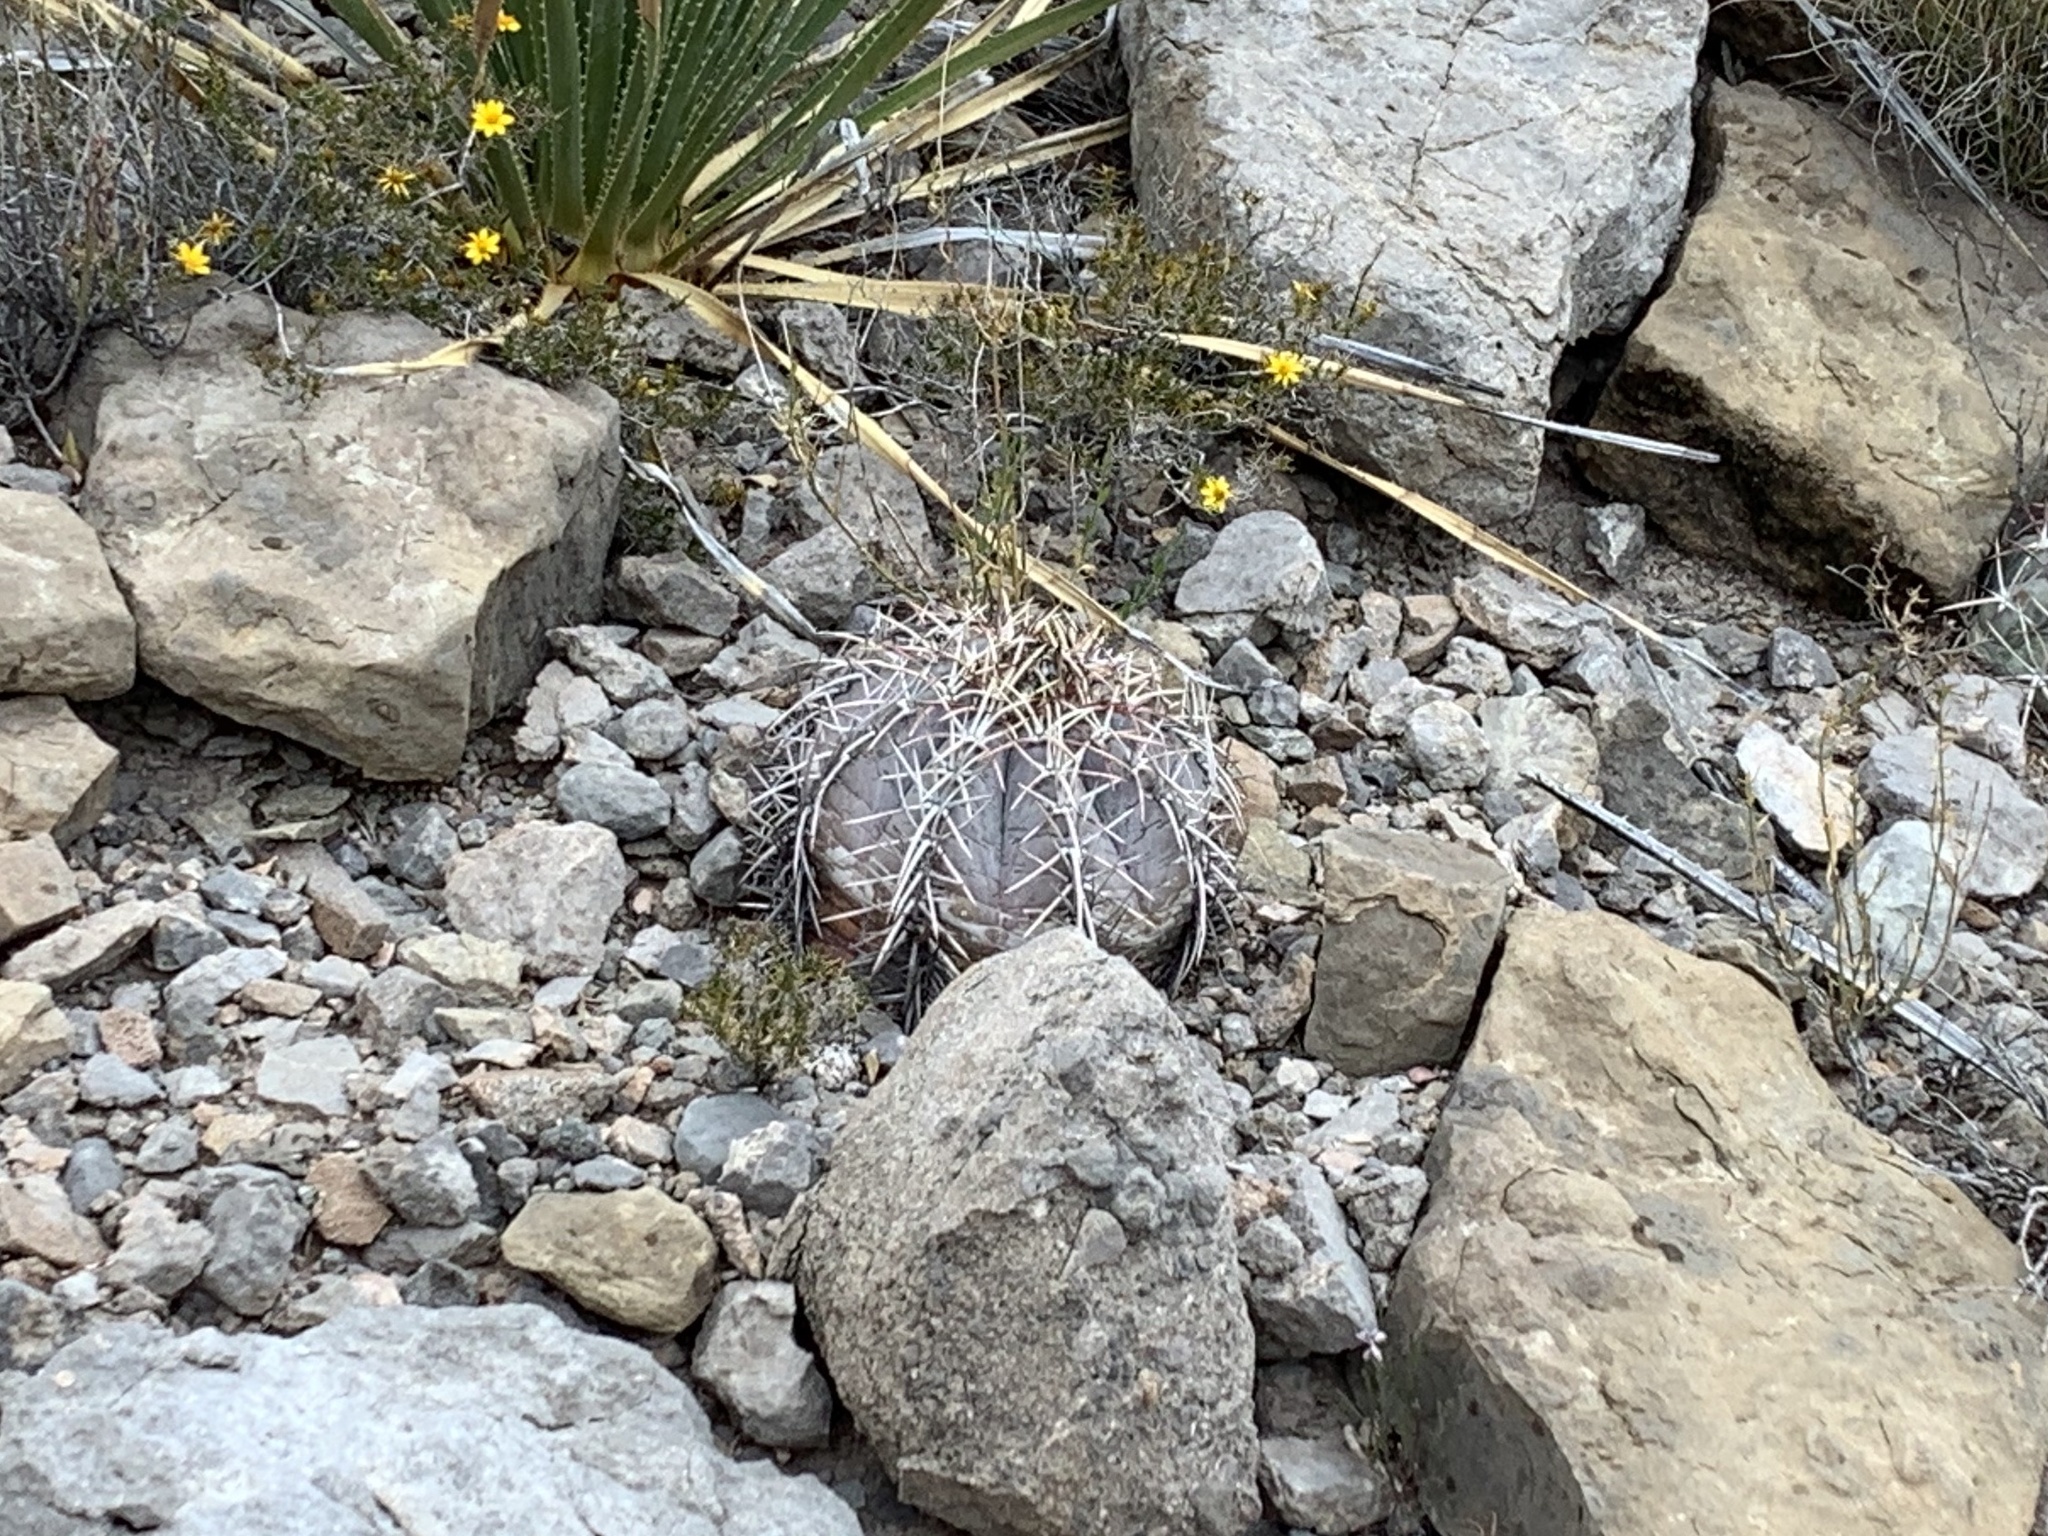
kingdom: Plantae
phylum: Tracheophyta
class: Magnoliopsida
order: Caryophyllales
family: Cactaceae
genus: Echinocactus
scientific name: Echinocactus horizonthalonius
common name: Devilshead
